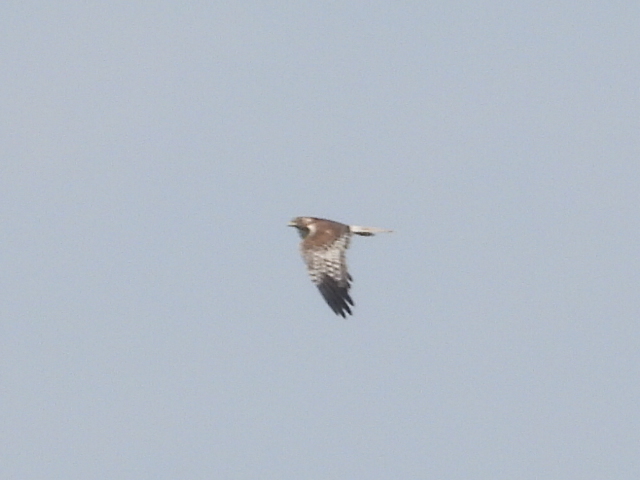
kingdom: Animalia
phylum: Chordata
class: Aves
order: Accipitriformes
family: Accipitridae
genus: Circus
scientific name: Circus spilonotus
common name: Eastern marsh-harrier
